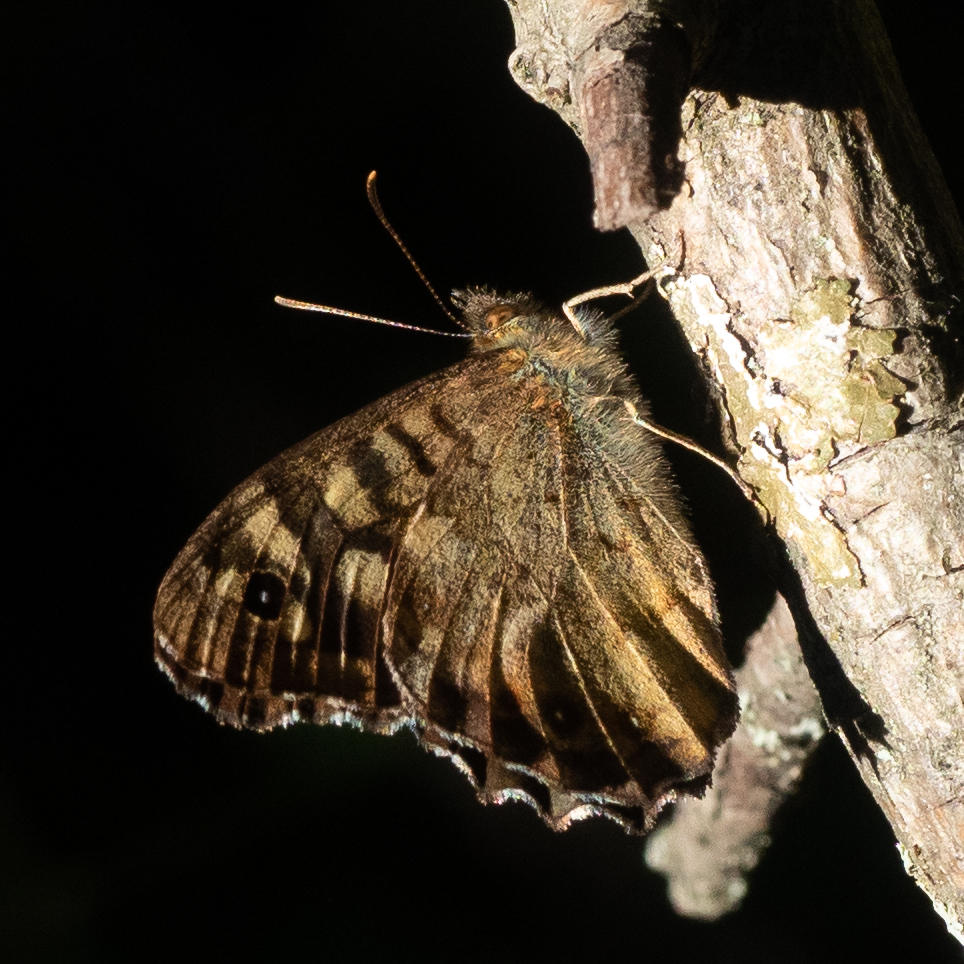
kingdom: Animalia
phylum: Arthropoda
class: Insecta
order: Lepidoptera
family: Nymphalidae
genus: Pararge
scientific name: Pararge aegeria
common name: Speckled wood
